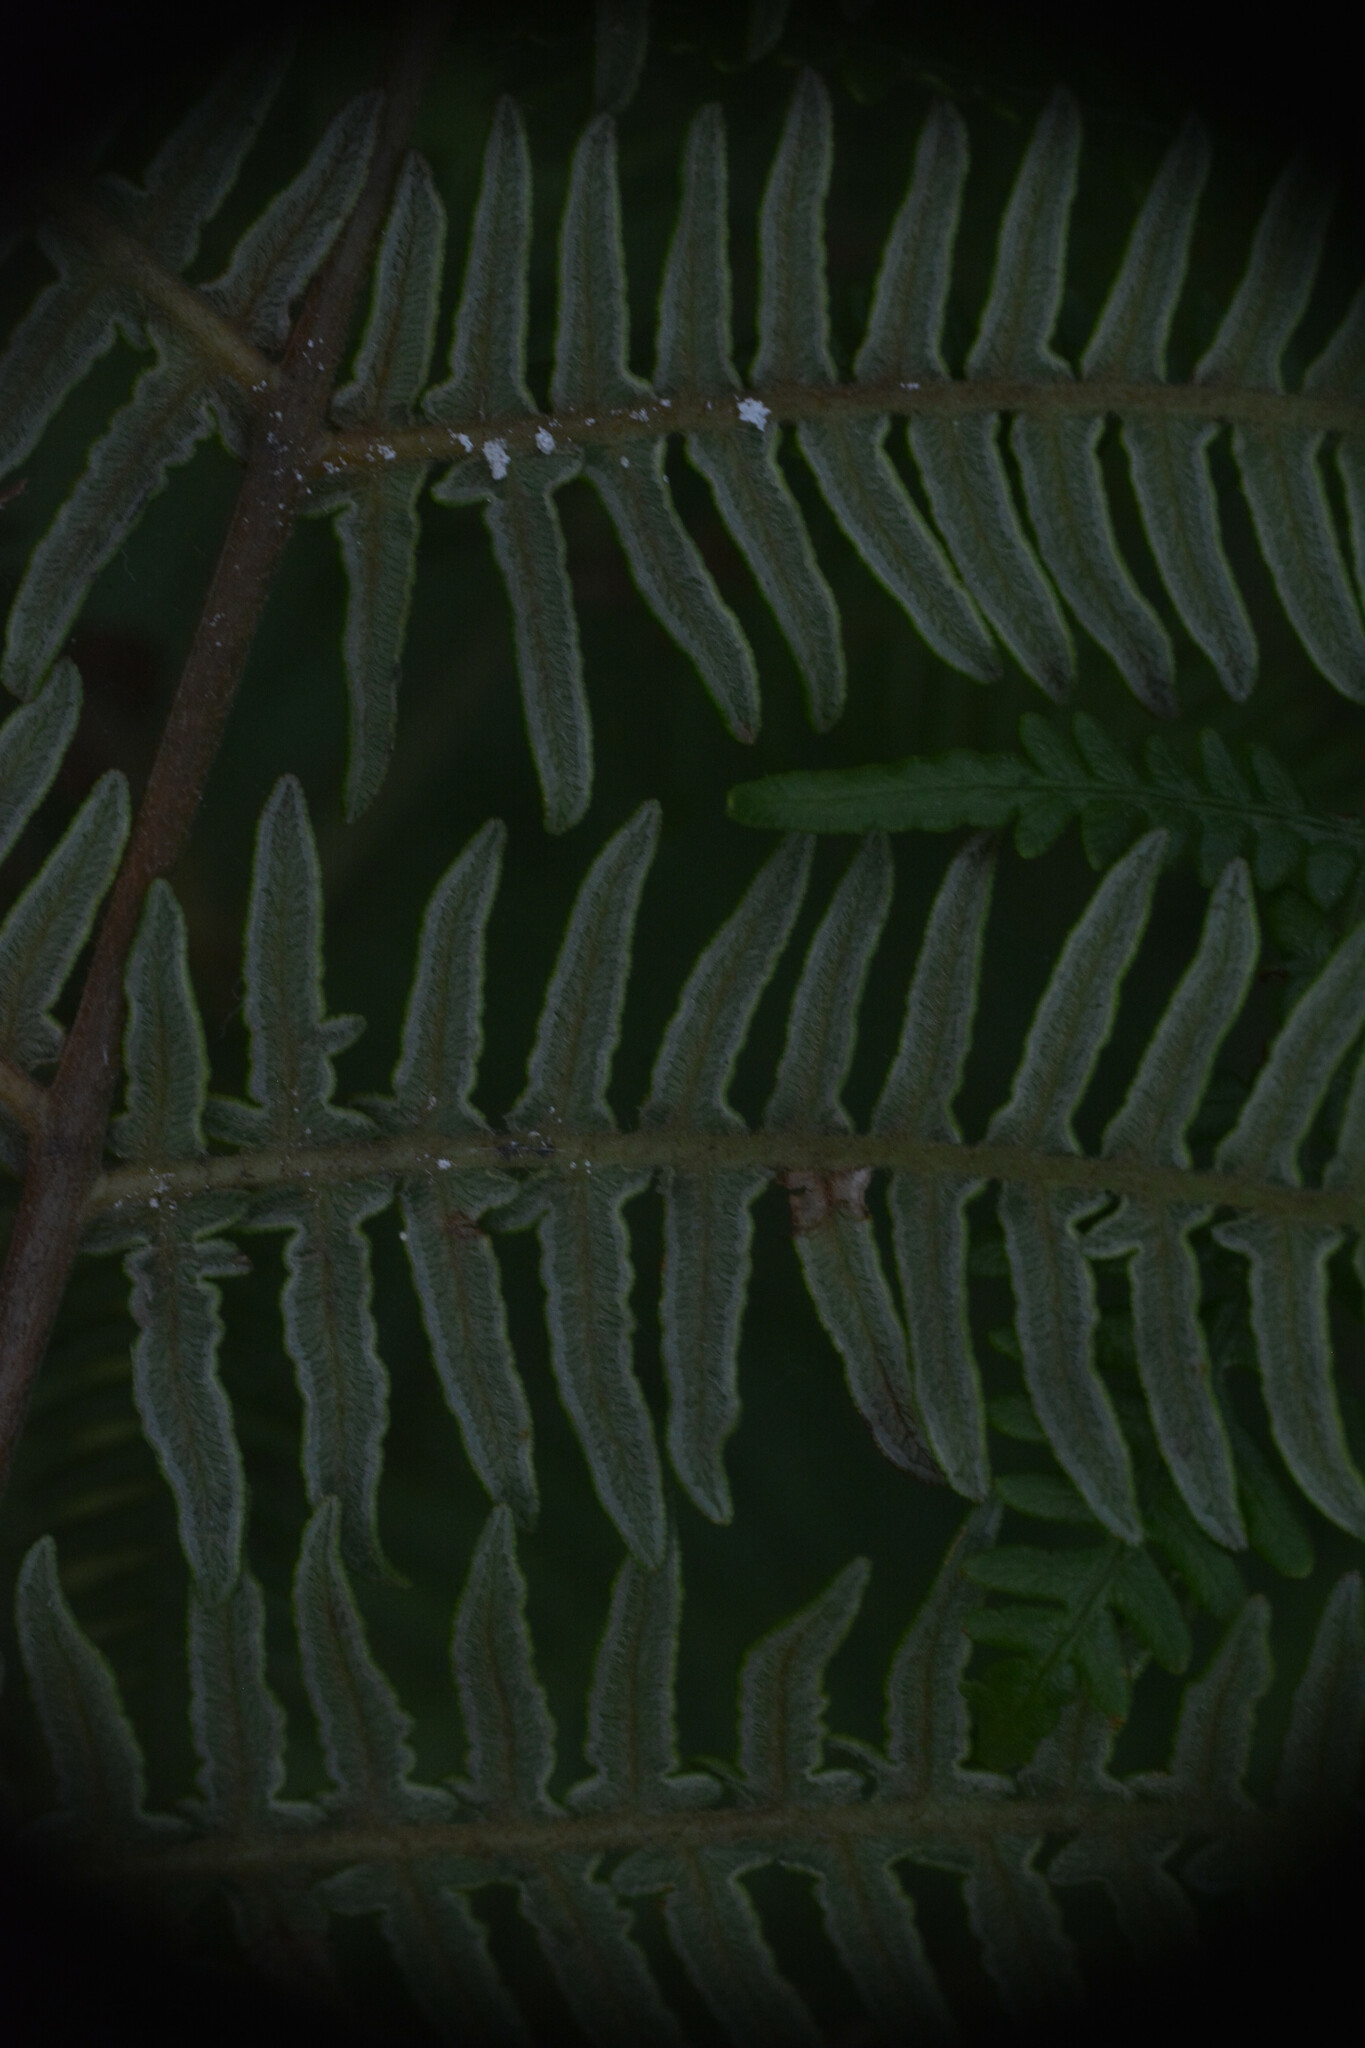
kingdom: Plantae
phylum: Tracheophyta
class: Polypodiopsida
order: Polypodiales
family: Dennstaedtiaceae
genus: Pteridium
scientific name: Pteridium aquilinum
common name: Bracken
